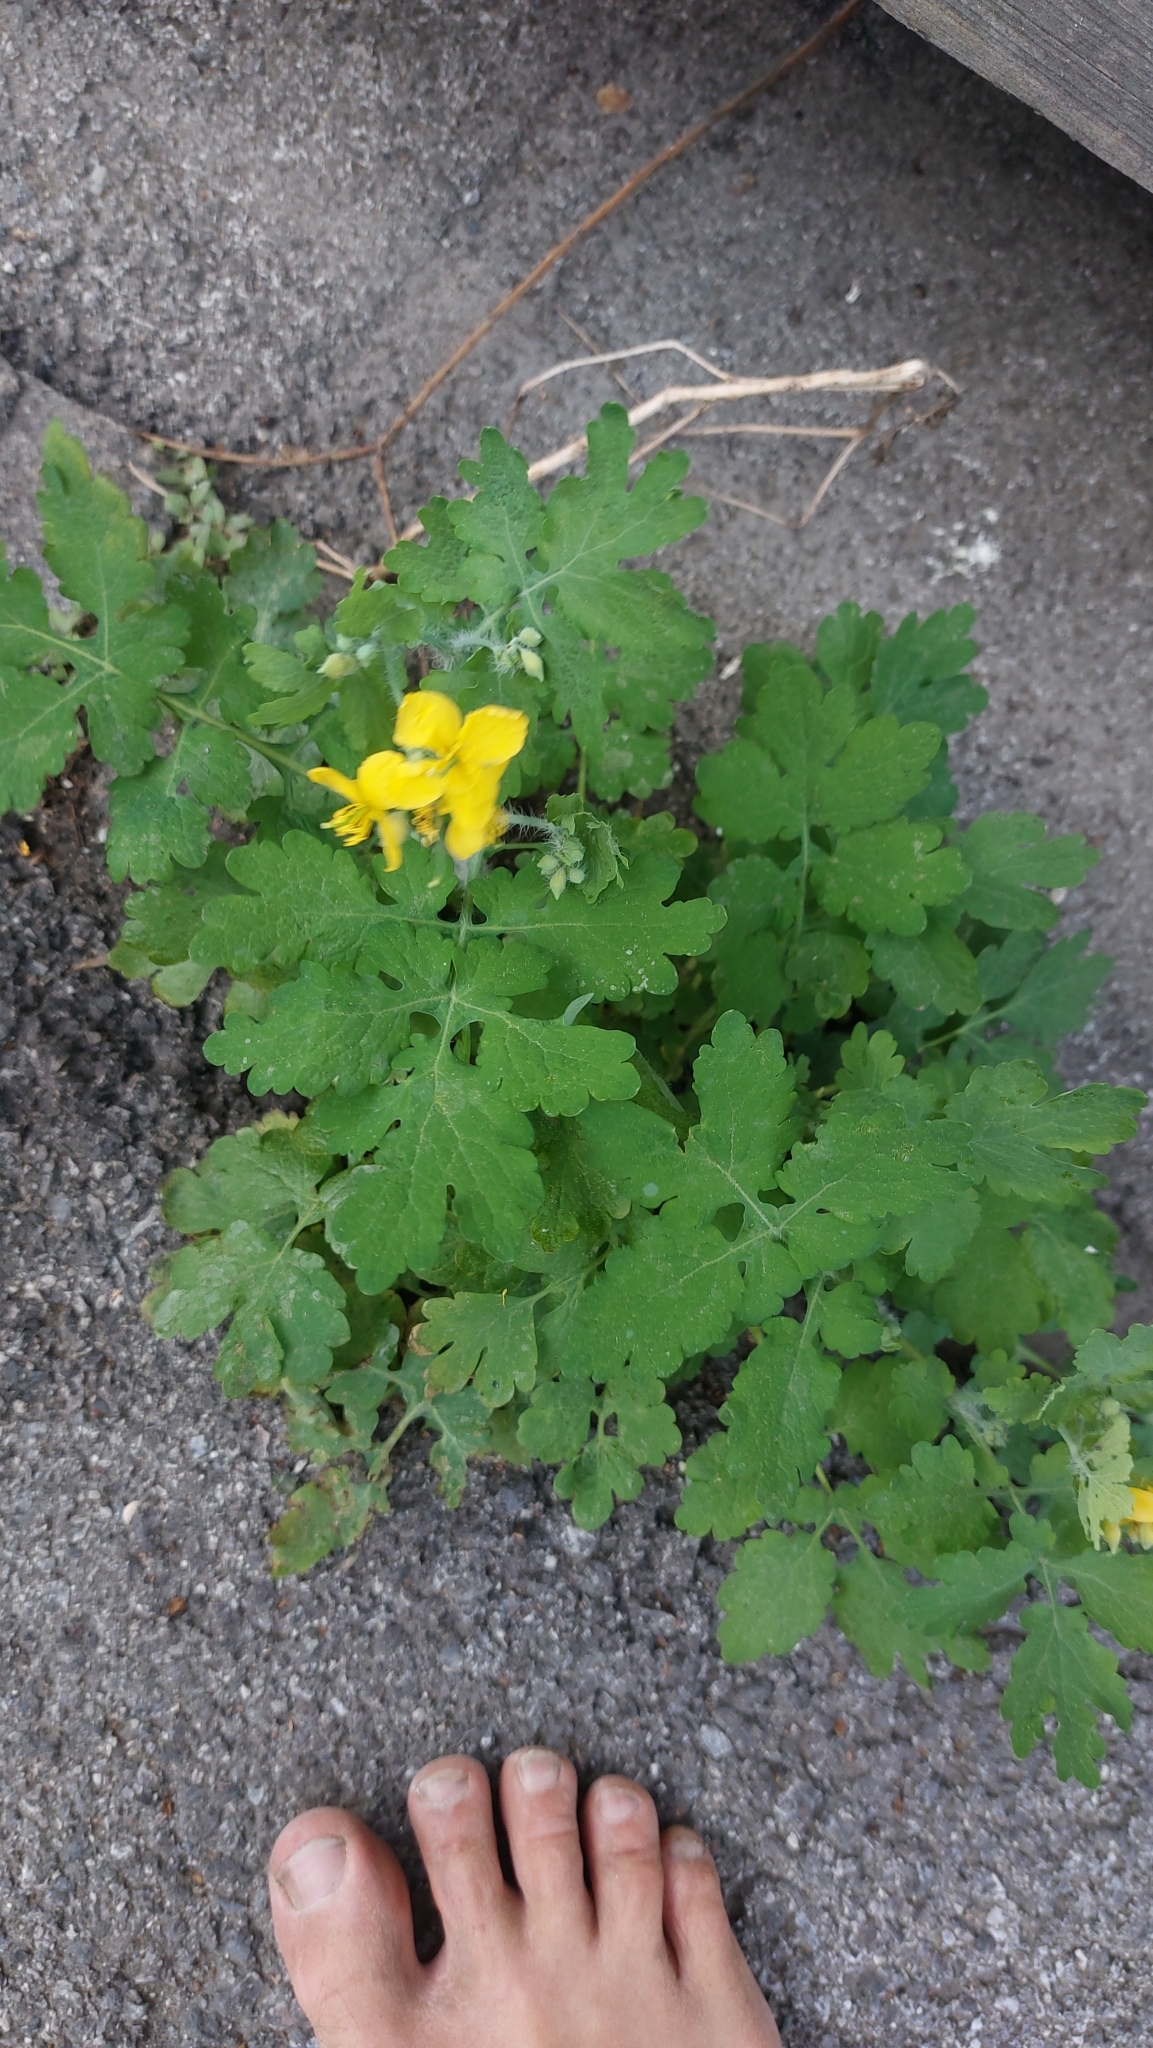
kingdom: Plantae
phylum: Tracheophyta
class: Magnoliopsida
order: Ranunculales
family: Papaveraceae
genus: Chelidonium
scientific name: Chelidonium majus
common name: Greater celandine
